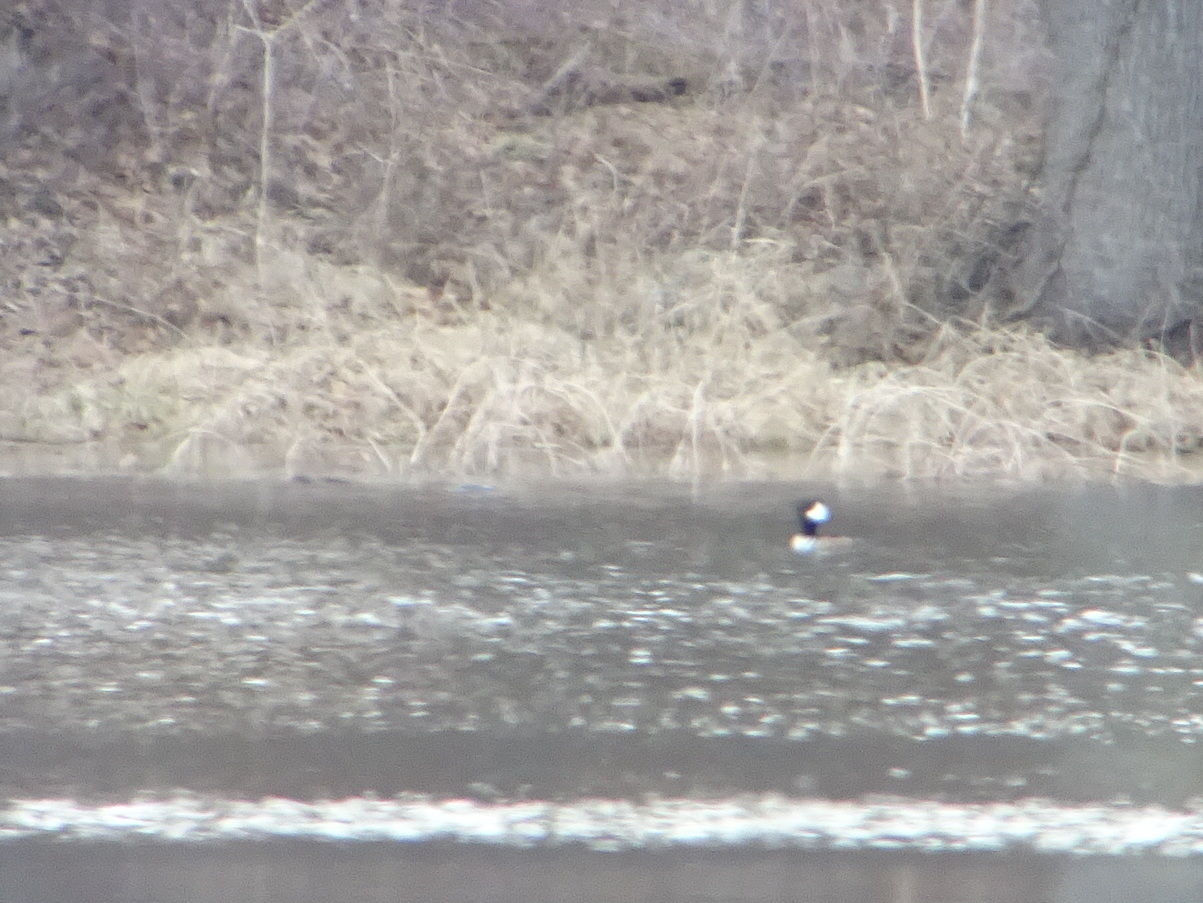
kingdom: Animalia
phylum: Chordata
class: Aves
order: Anseriformes
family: Anatidae
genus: Lophodytes
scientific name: Lophodytes cucullatus
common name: Hooded merganser
